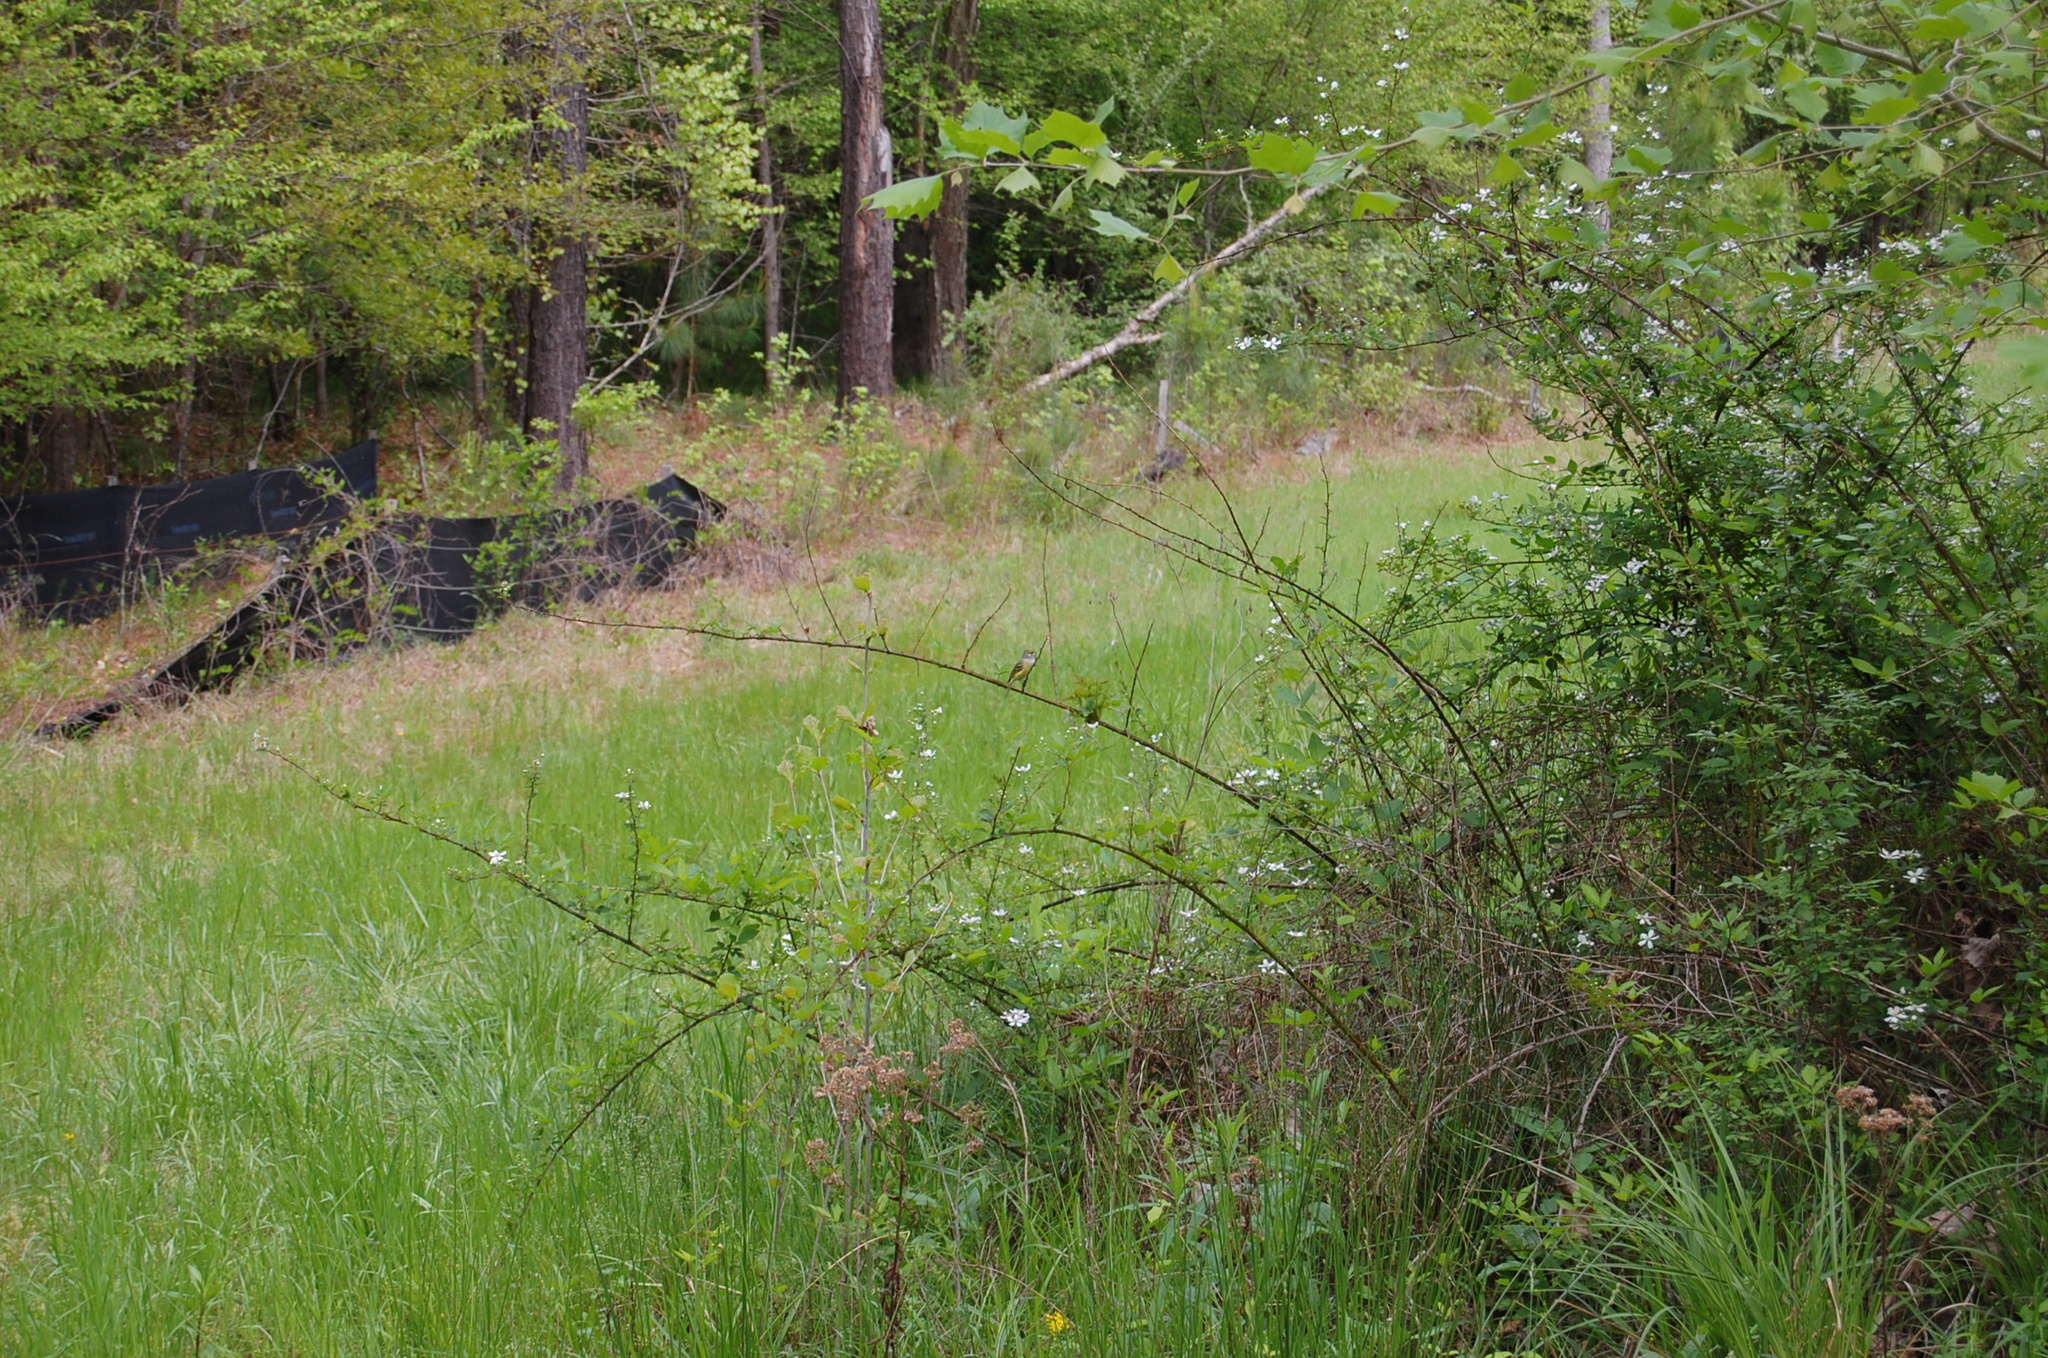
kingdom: Animalia
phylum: Chordata
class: Aves
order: Passeriformes
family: Vireonidae
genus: Vireo
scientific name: Vireo griseus
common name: White-eyed vireo
